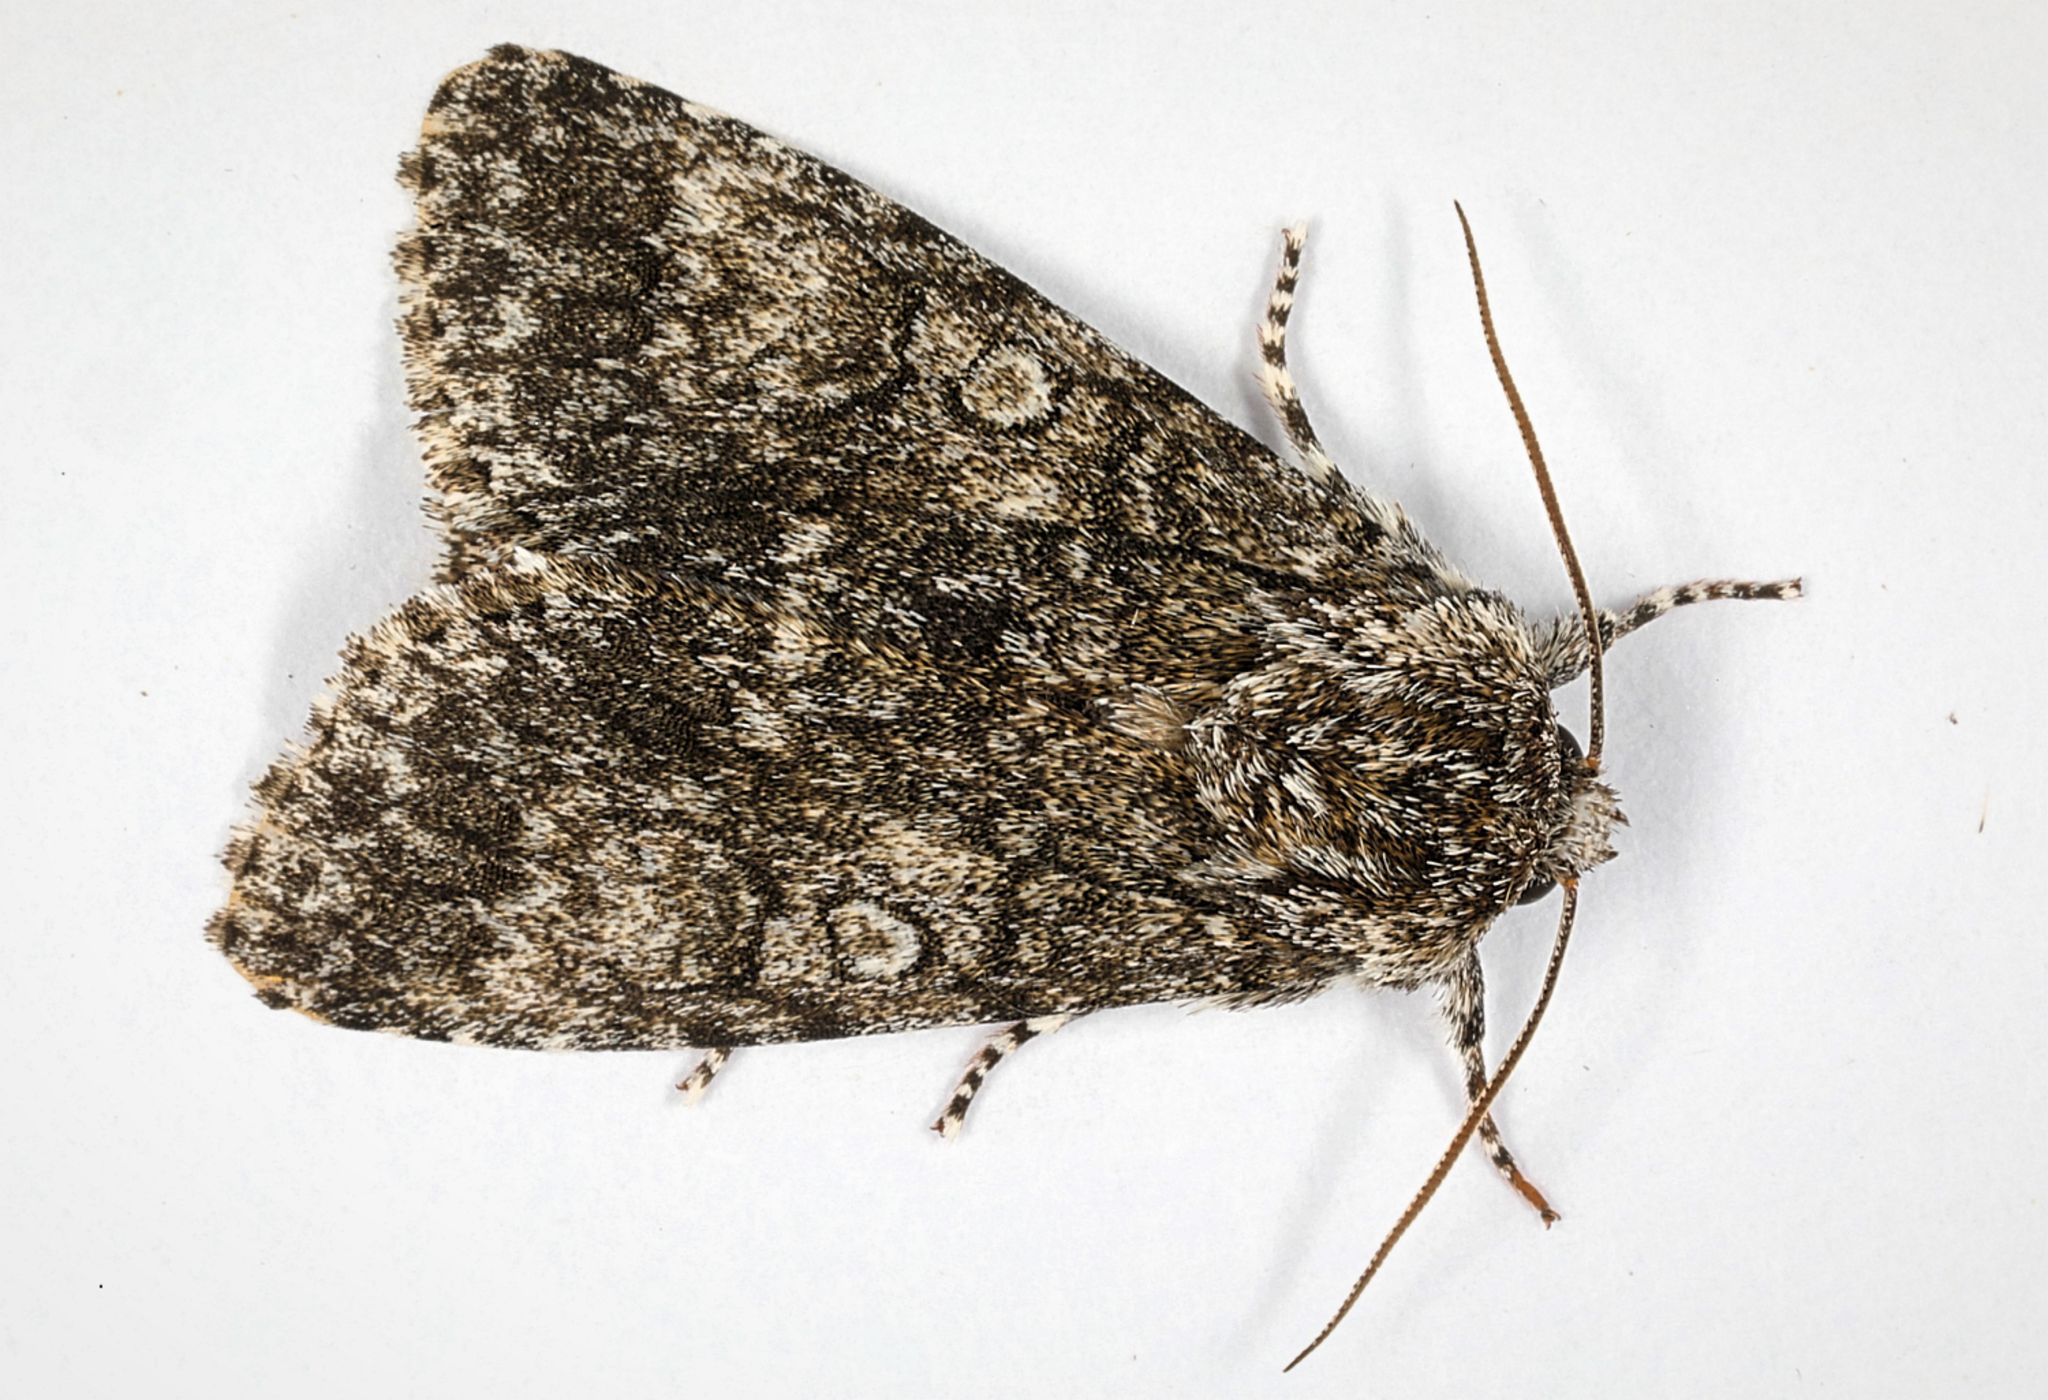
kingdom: Animalia
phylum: Arthropoda
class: Insecta
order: Lepidoptera
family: Noctuidae
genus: Acronicta
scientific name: Acronicta megacephala
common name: Poplar grey
